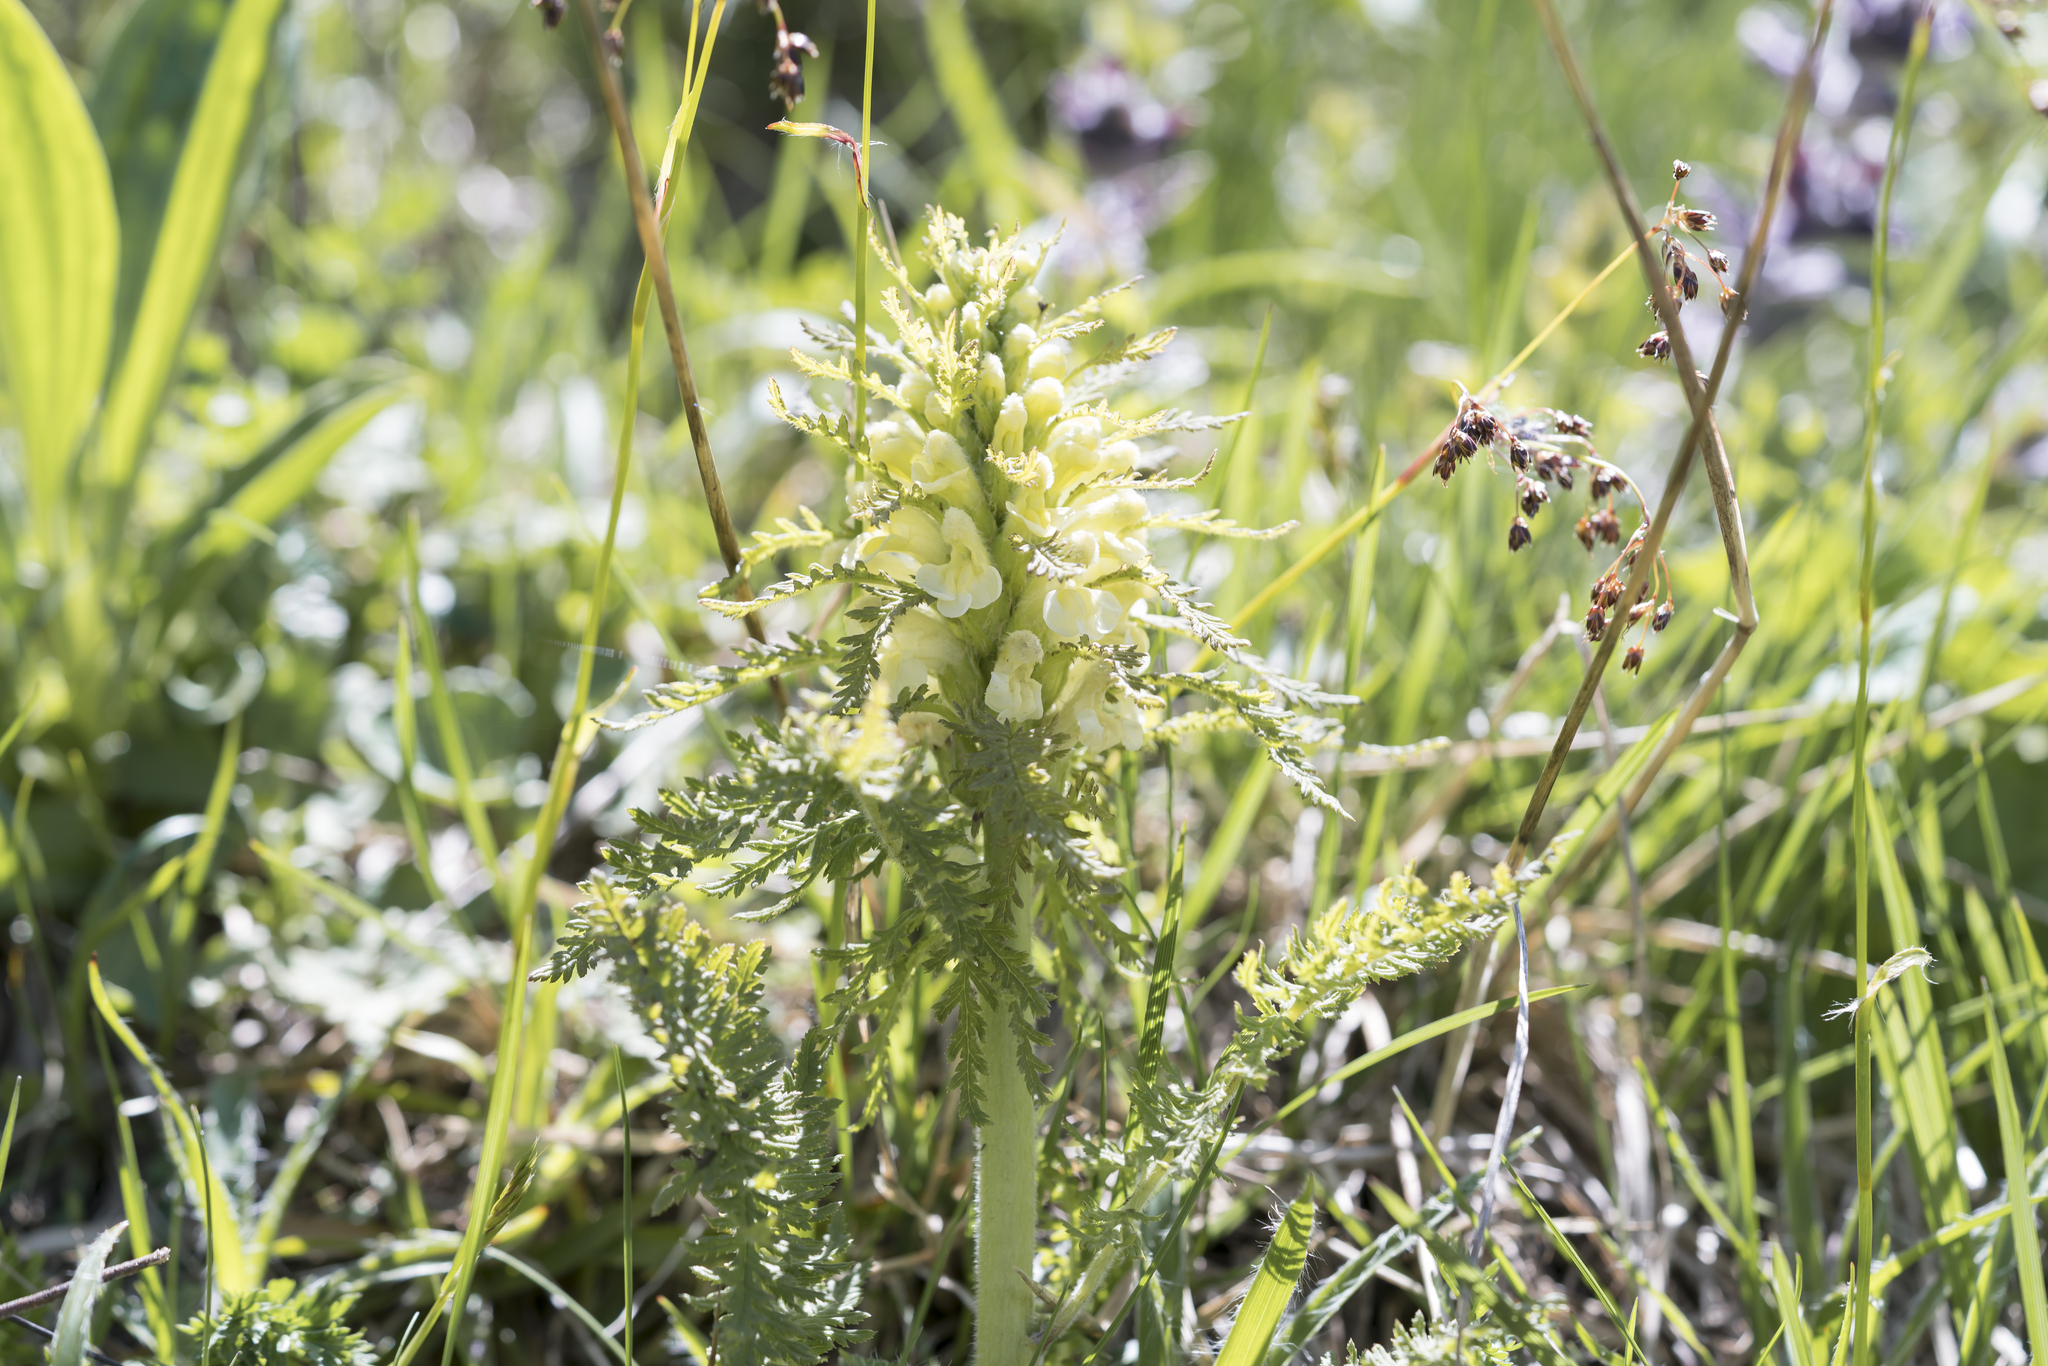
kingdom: Plantae
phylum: Tracheophyta
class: Magnoliopsida
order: Lamiales
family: Orobanchaceae
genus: Pedicularis
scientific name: Pedicularis foliosa
